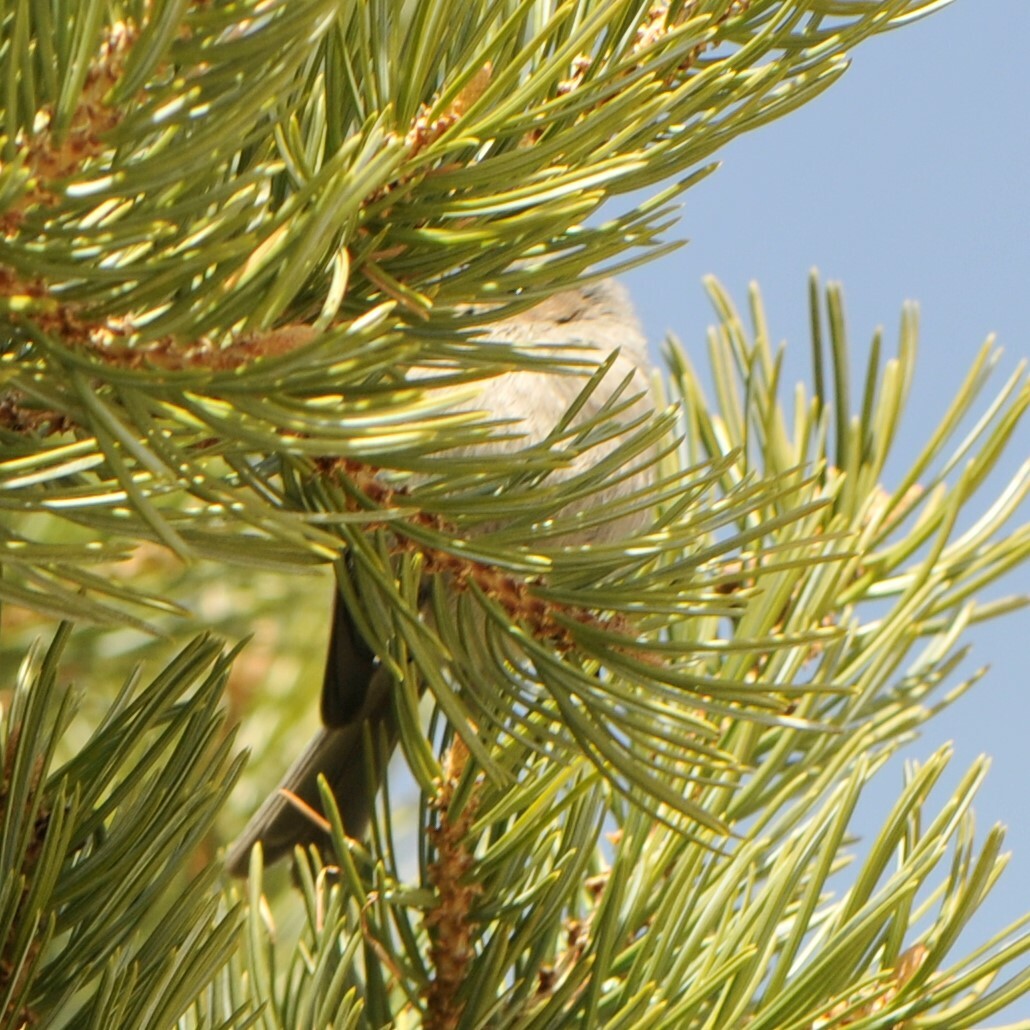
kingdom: Animalia
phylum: Chordata
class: Aves
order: Passeriformes
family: Aegithalidae
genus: Psaltriparus
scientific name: Psaltriparus minimus
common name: American bushtit
